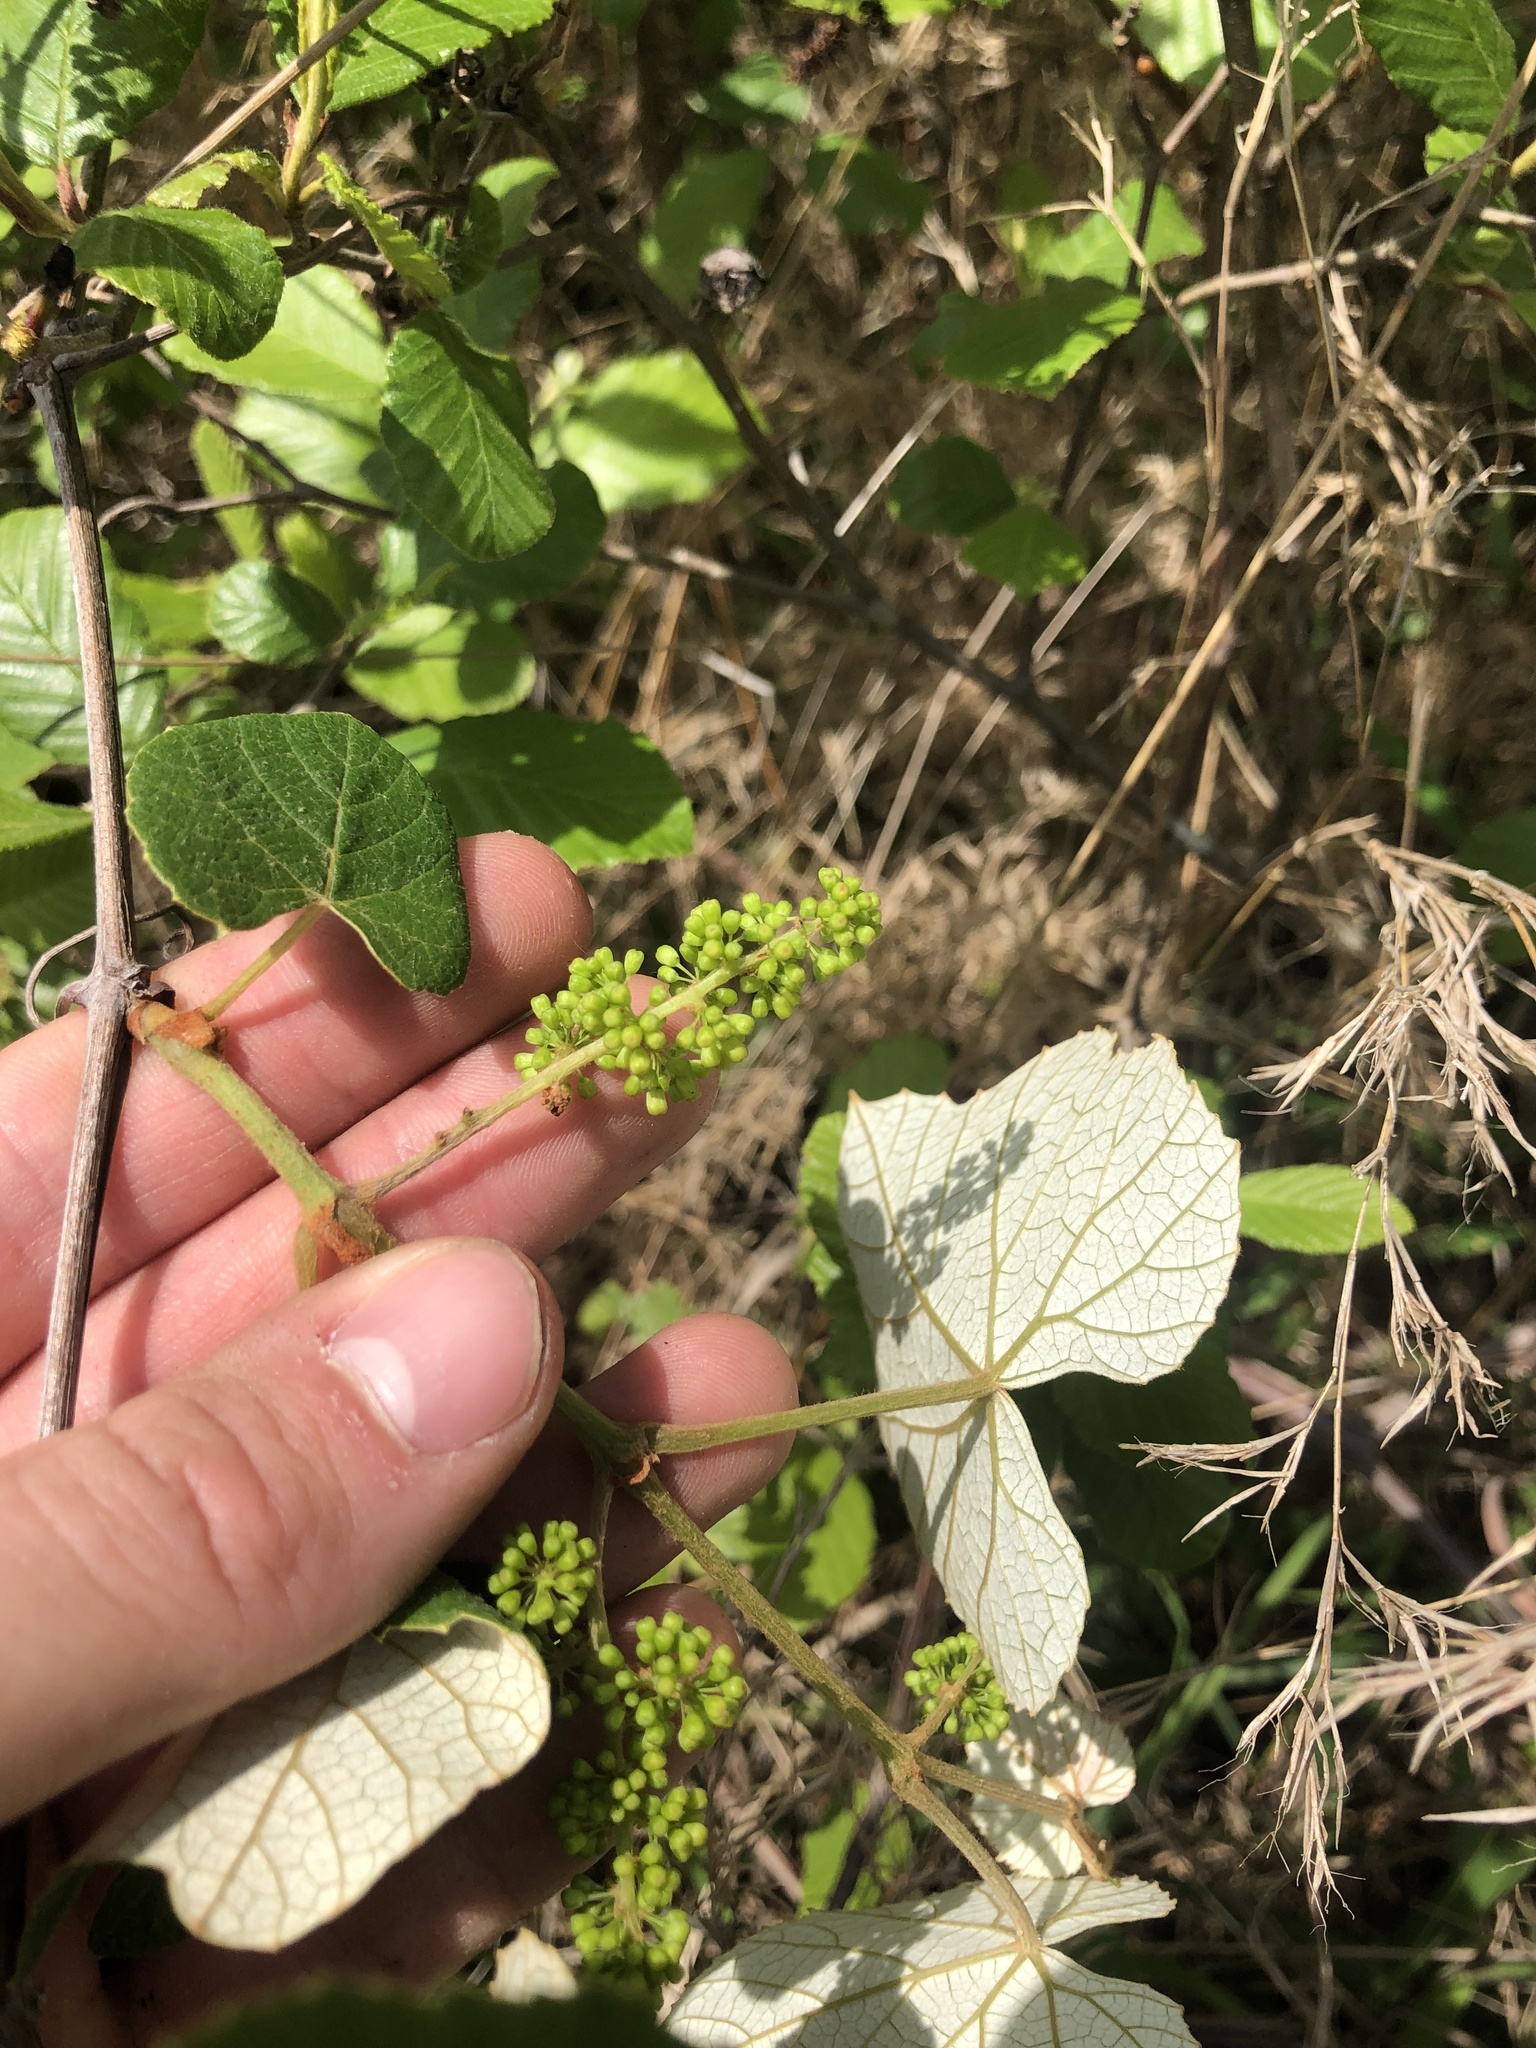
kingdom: Plantae
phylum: Tracheophyta
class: Magnoliopsida
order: Vitales
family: Vitaceae
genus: Vitis
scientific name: Vitis
